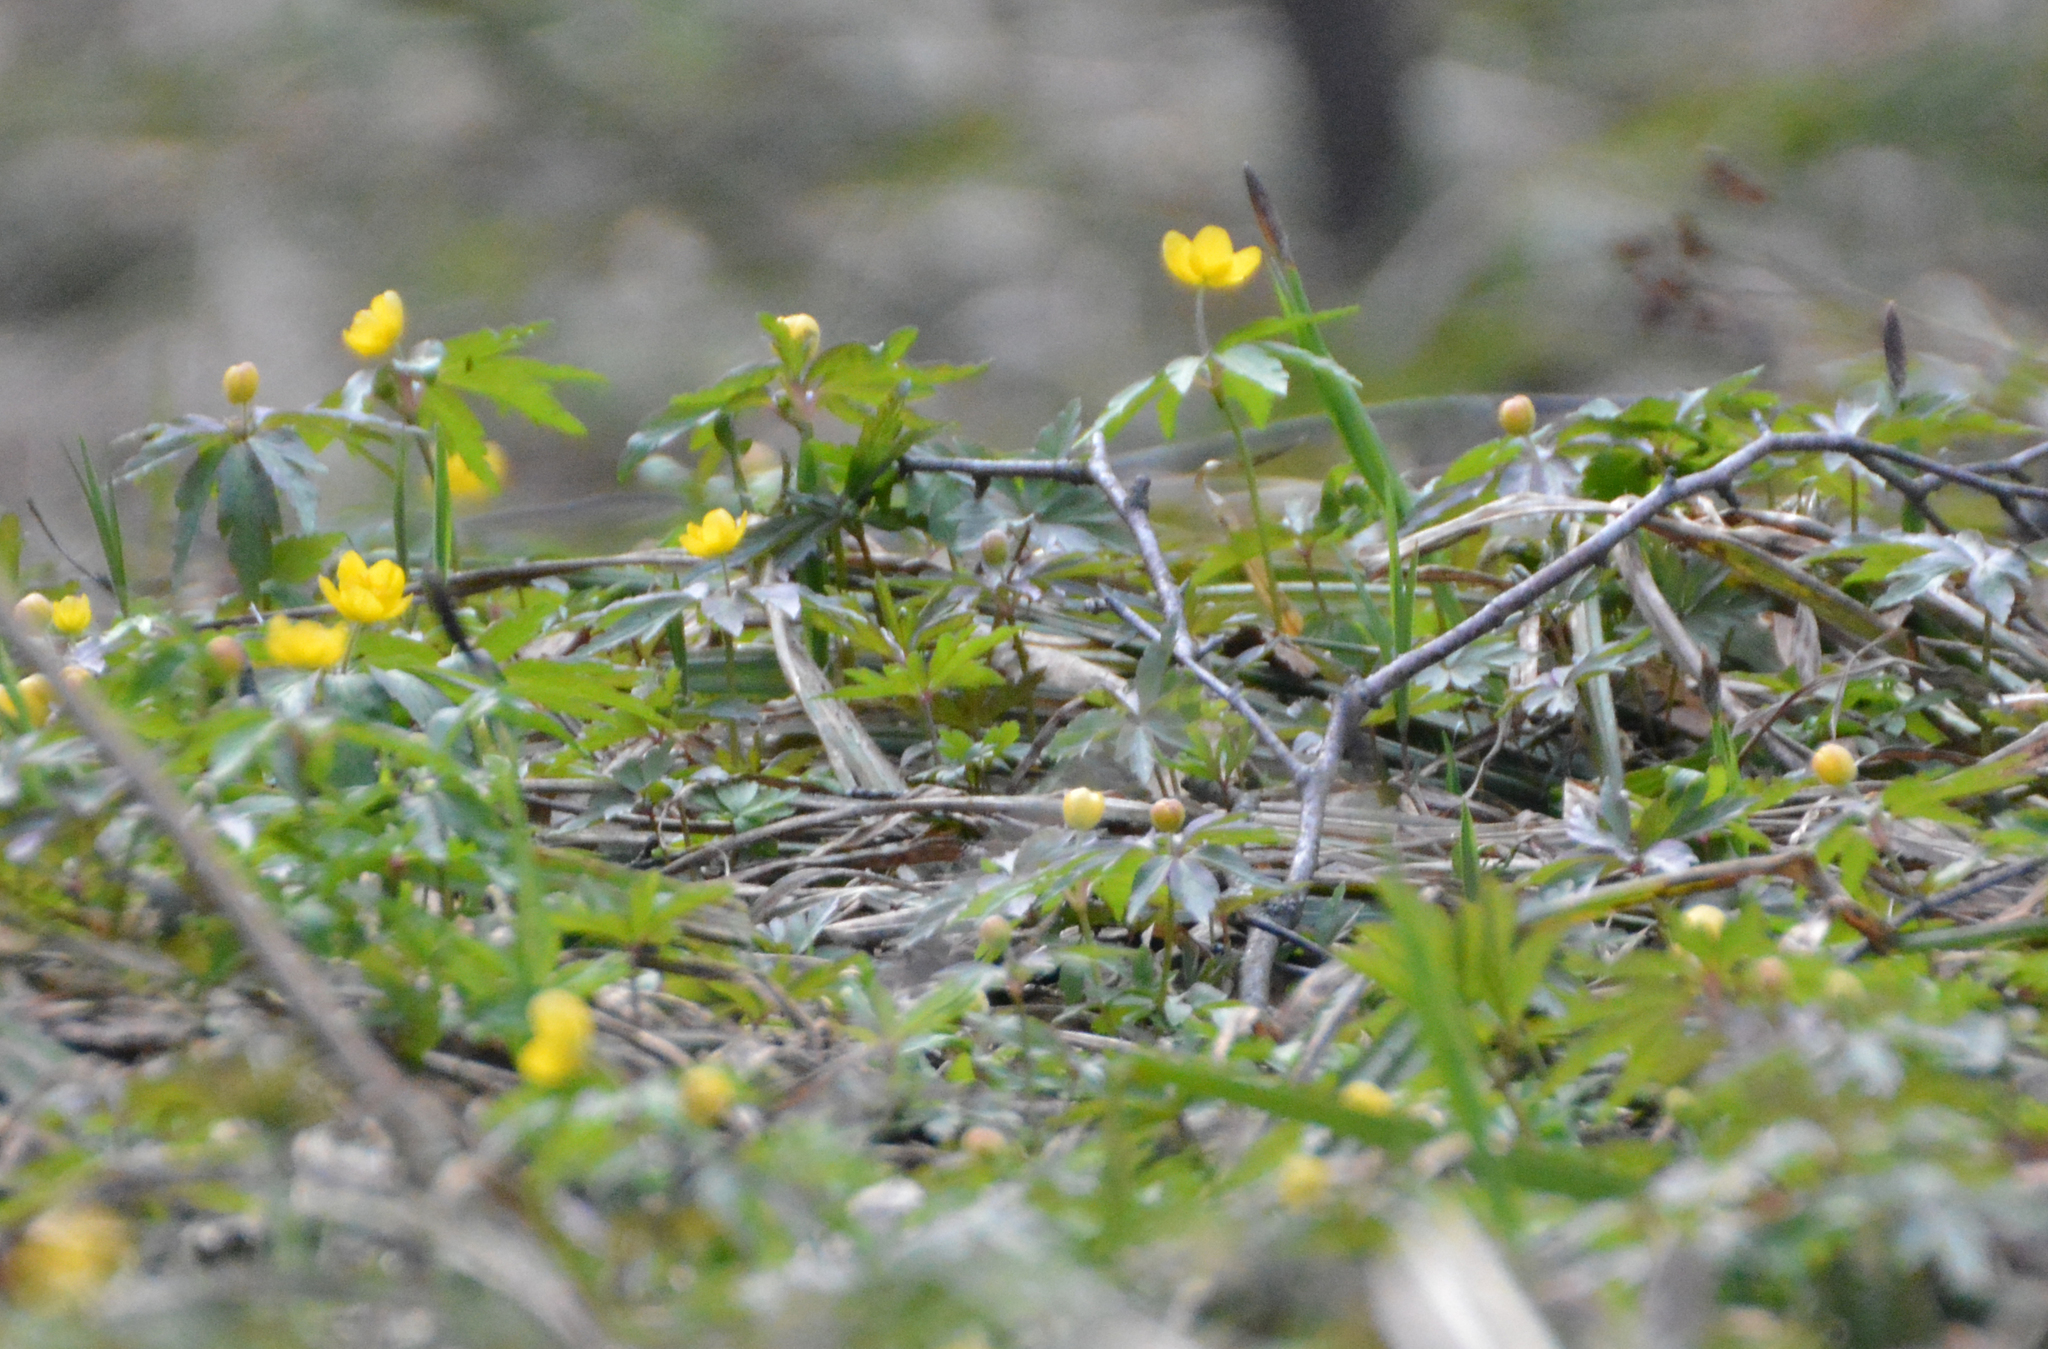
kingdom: Plantae
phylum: Tracheophyta
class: Magnoliopsida
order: Ranunculales
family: Ranunculaceae
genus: Anemone
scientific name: Anemone ranunculoides
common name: Yellow anemone
